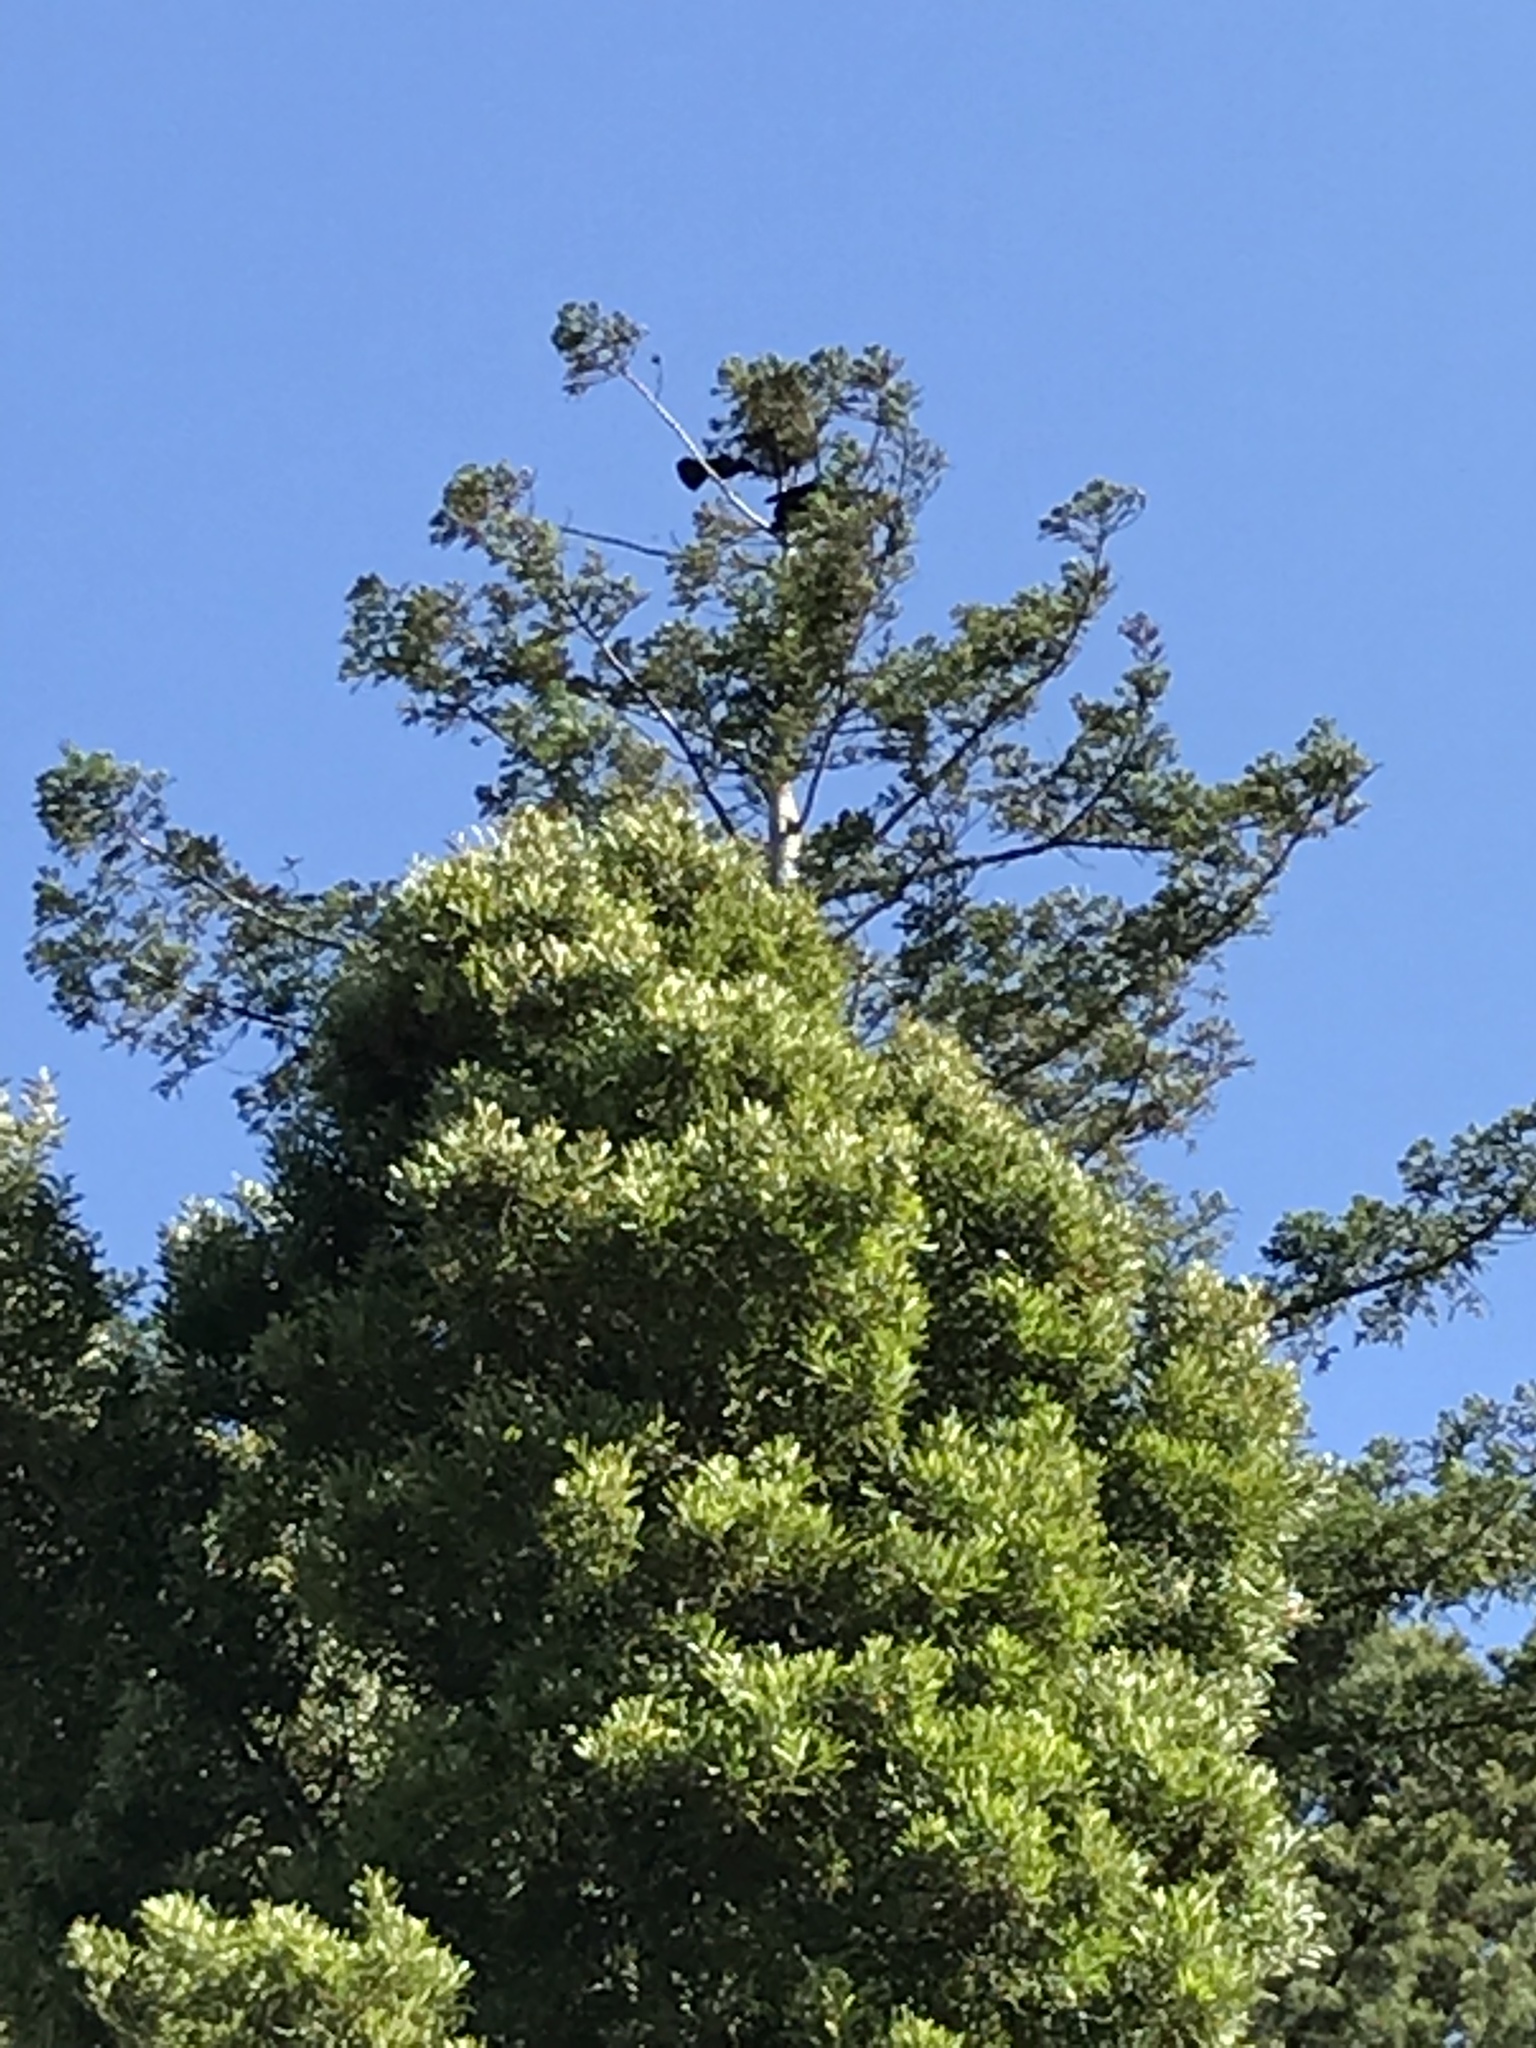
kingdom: Animalia
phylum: Chordata
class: Aves
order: Passeriformes
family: Corvidae
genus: Corvus
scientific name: Corvus brachyrhynchos
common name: American crow
